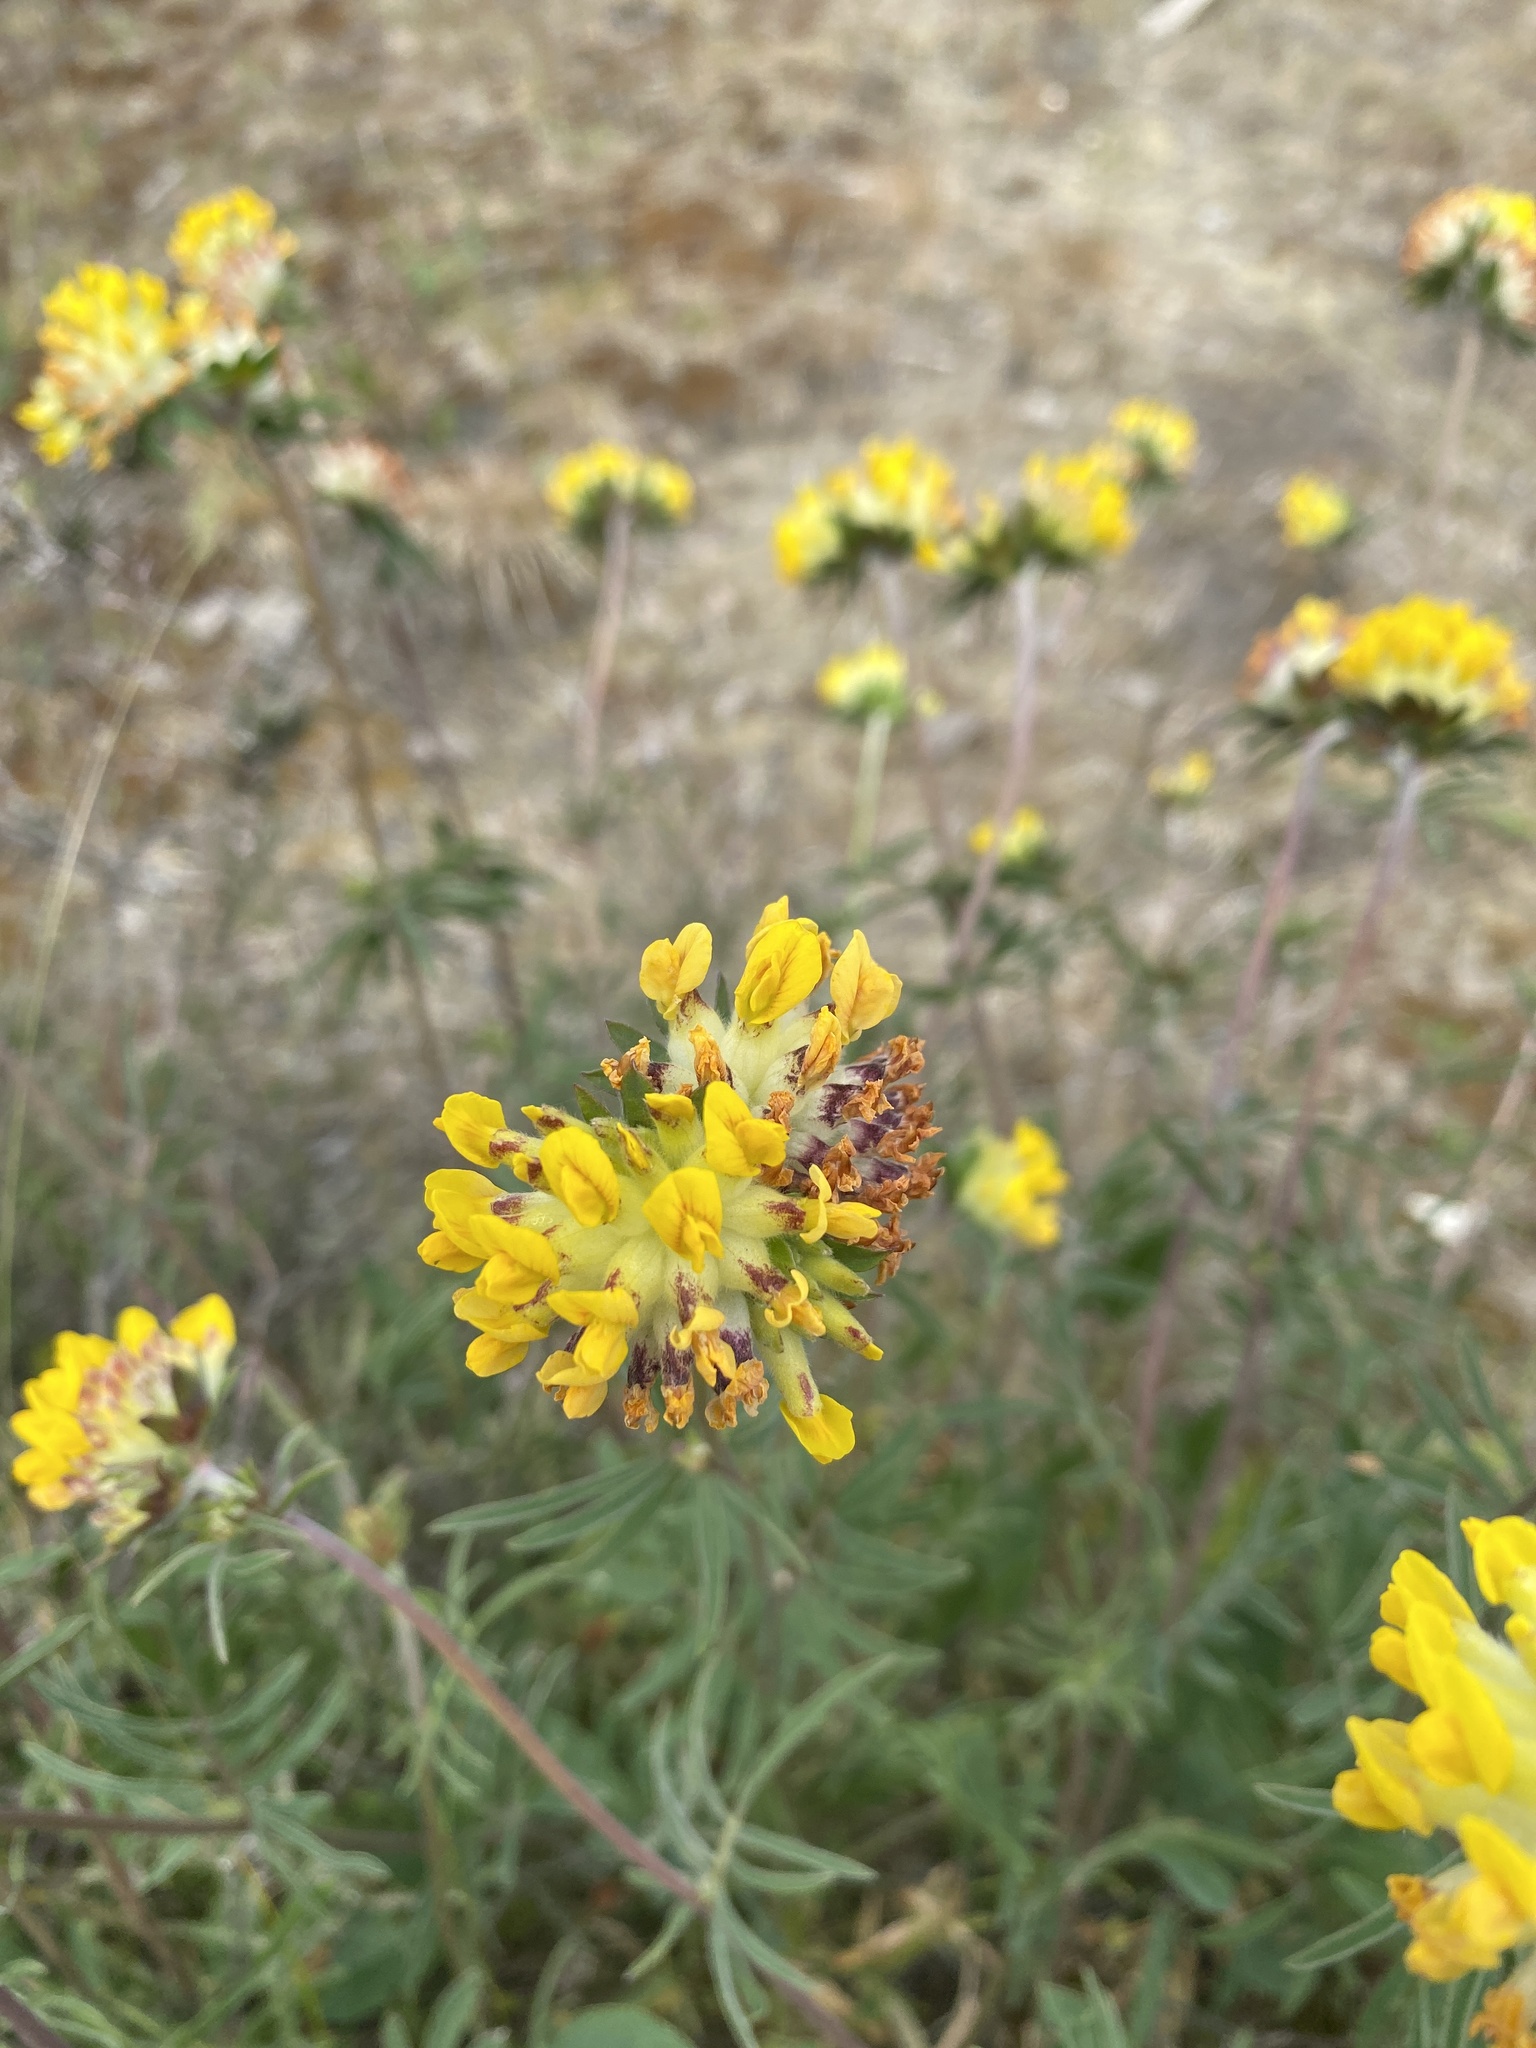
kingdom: Plantae
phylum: Tracheophyta
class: Magnoliopsida
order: Fabales
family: Fabaceae
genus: Anthyllis
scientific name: Anthyllis vulneraria
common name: Kidney vetch
